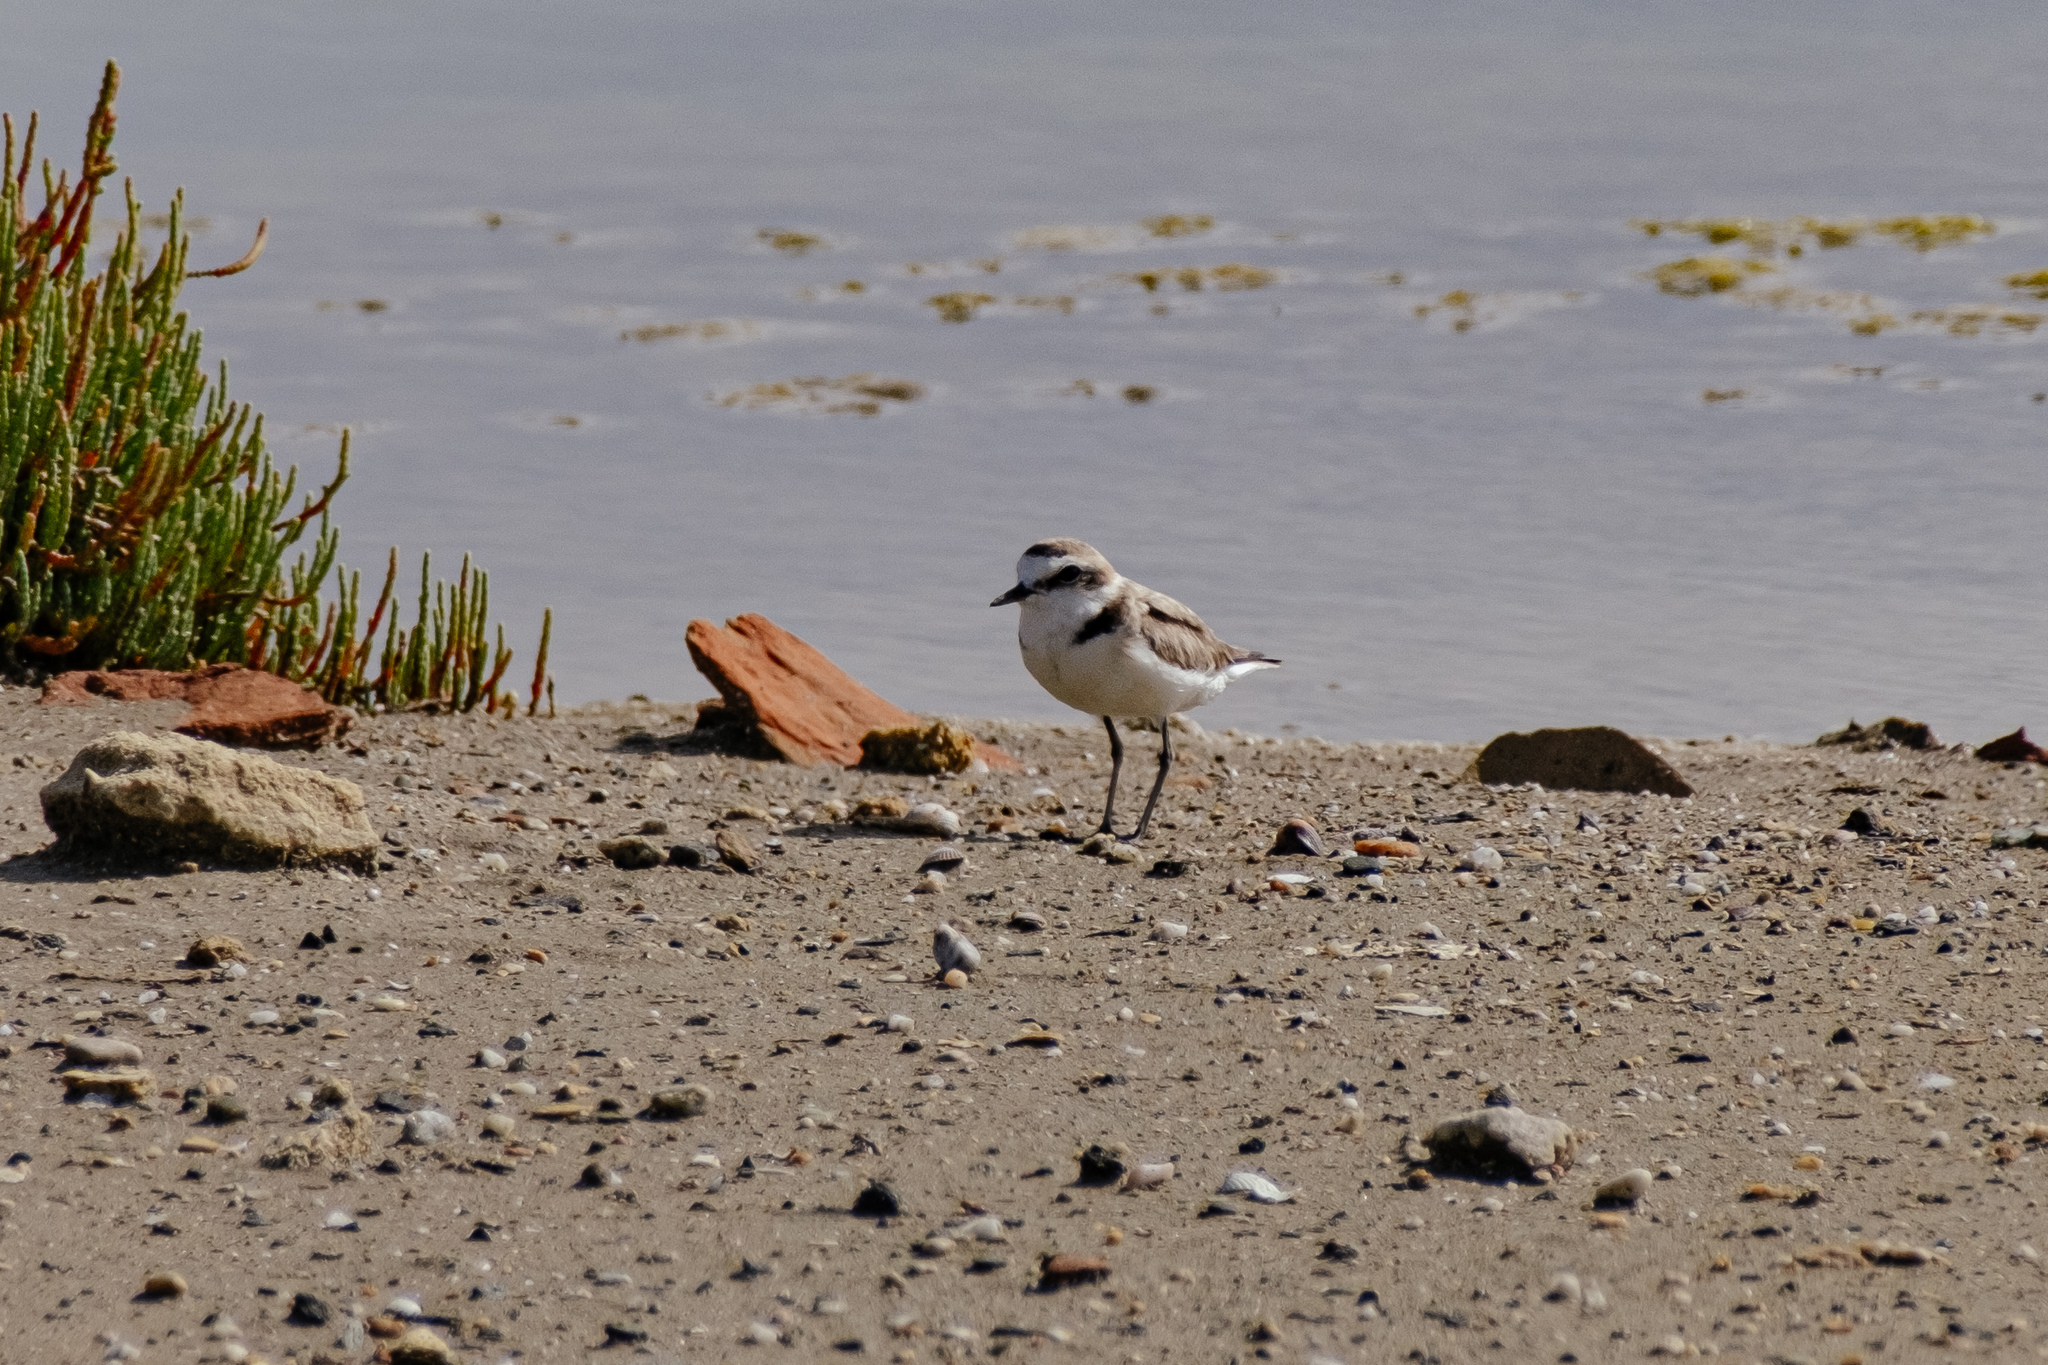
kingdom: Animalia
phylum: Chordata
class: Aves
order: Charadriiformes
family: Charadriidae
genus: Charadrius
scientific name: Charadrius alexandrinus
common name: Kentish plover
